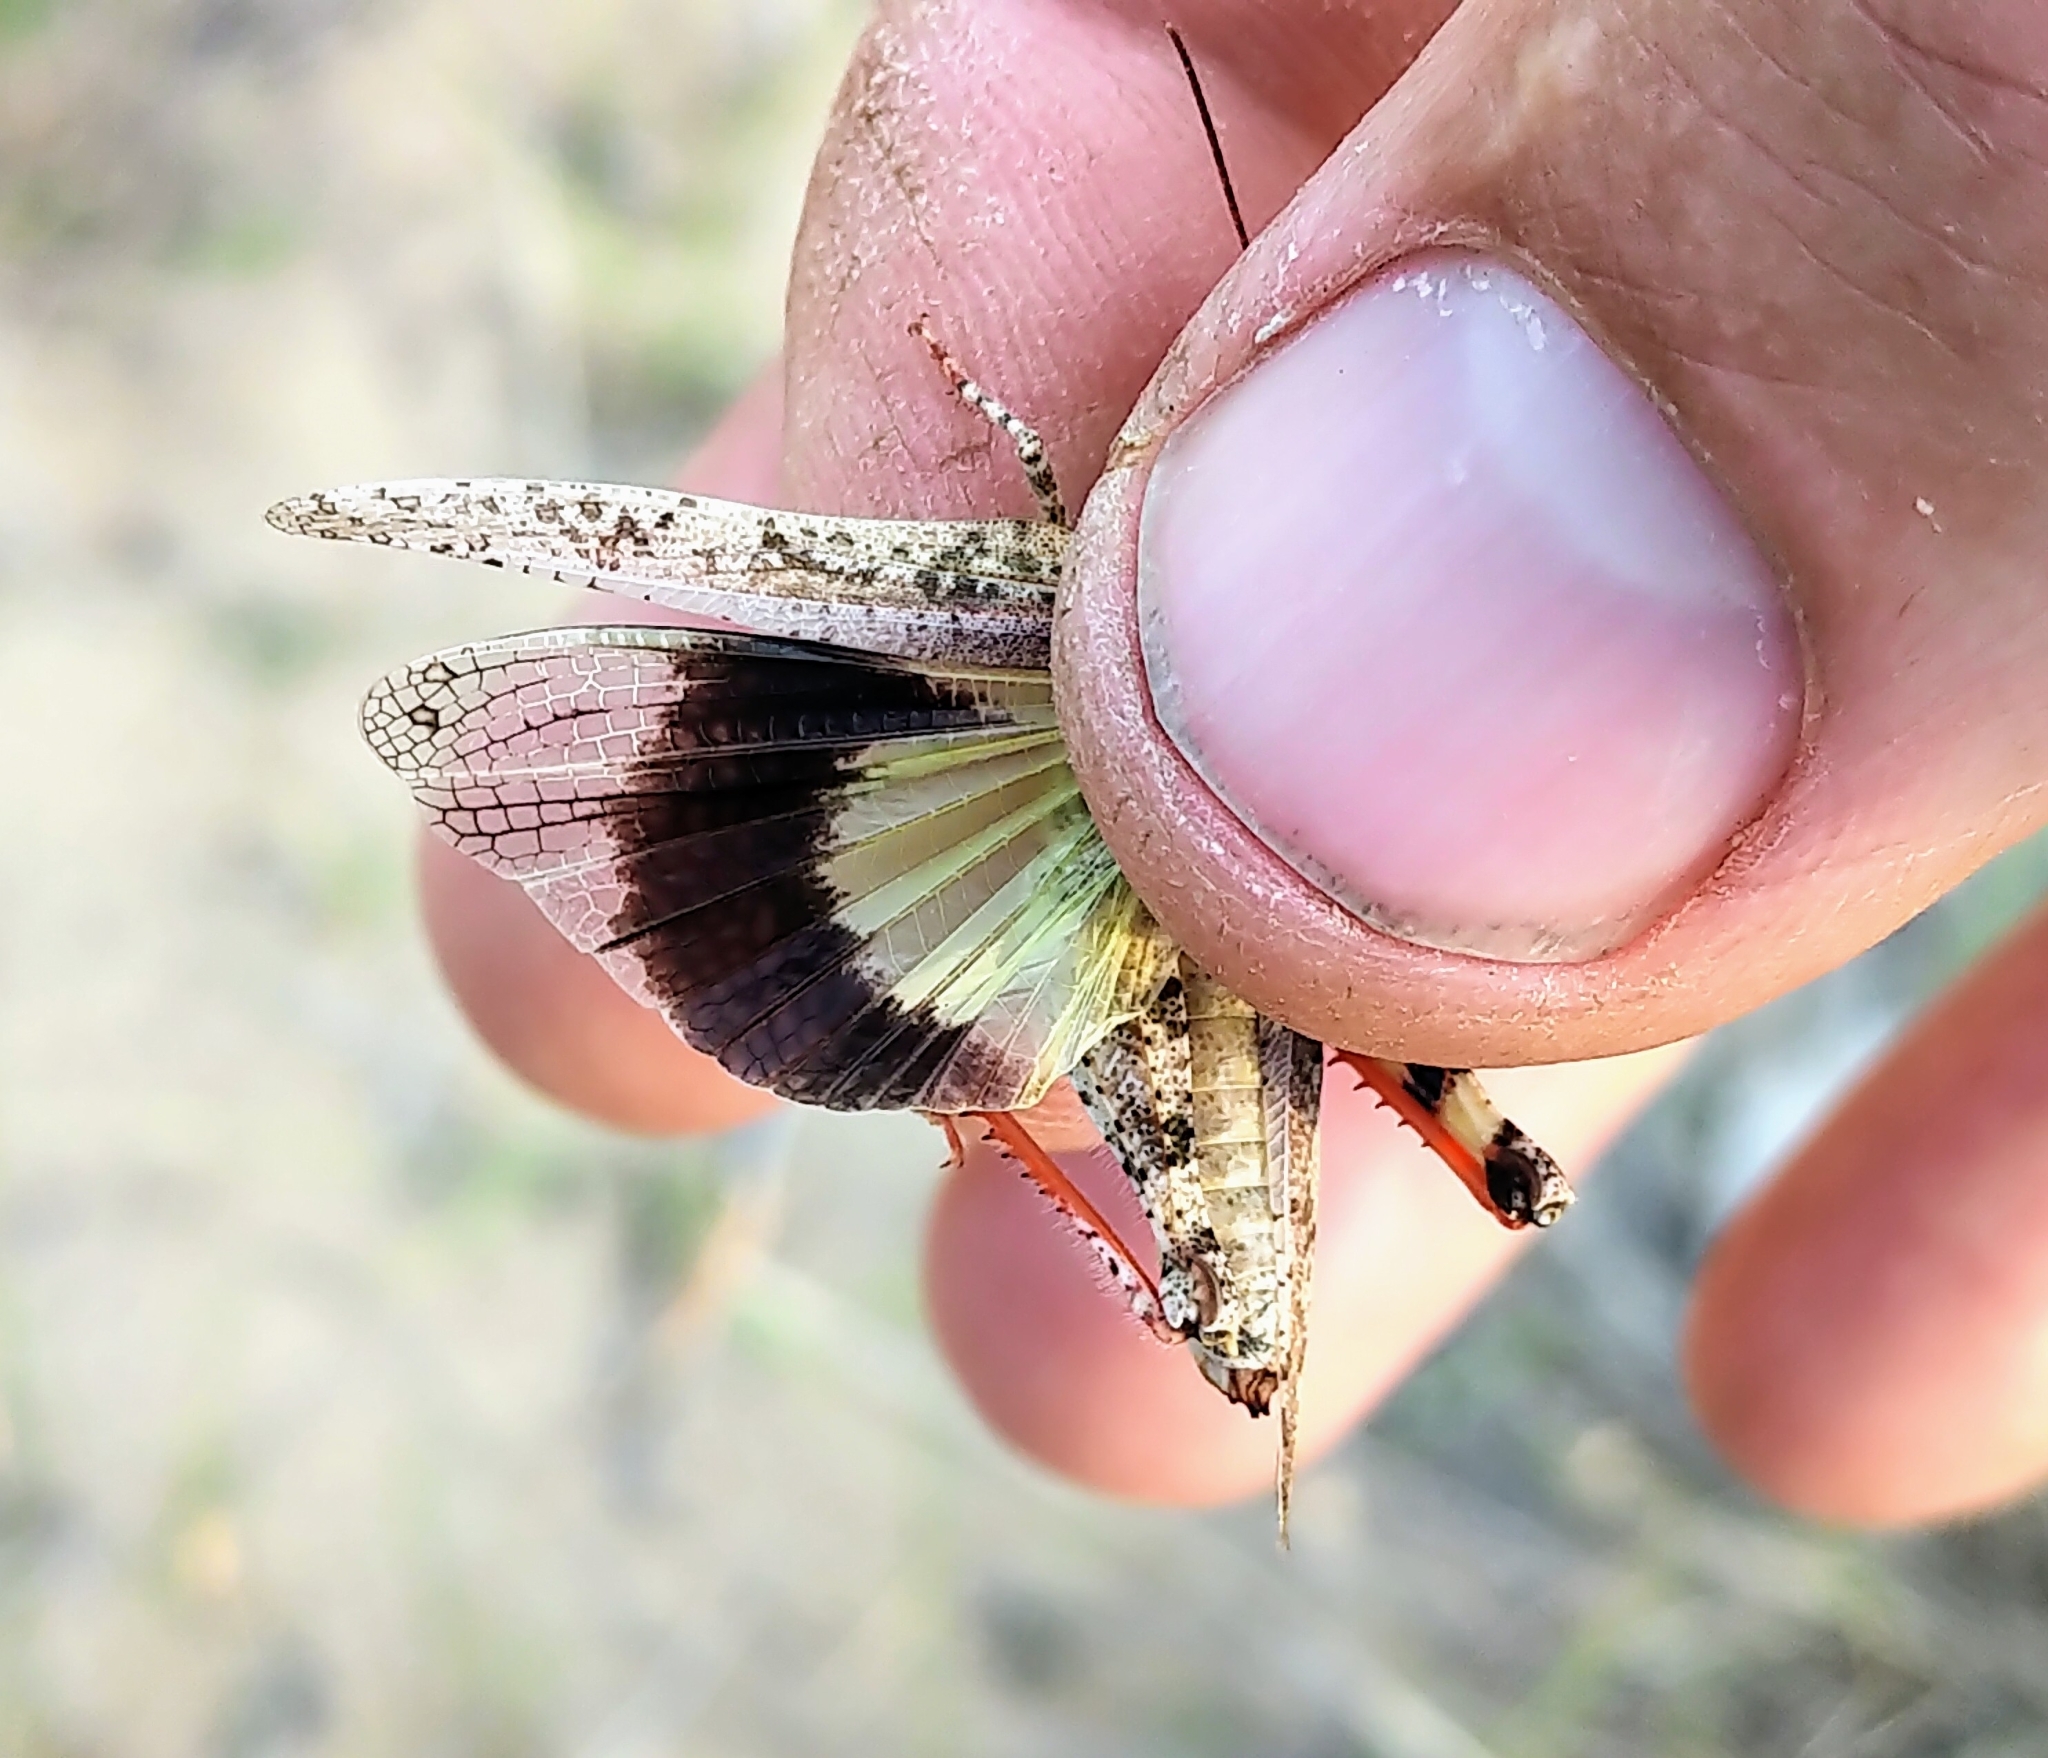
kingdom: Animalia
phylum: Arthropoda
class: Insecta
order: Orthoptera
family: Acrididae
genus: Spharagemon
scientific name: Spharagemon collare
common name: Mottled sand grasshopper
